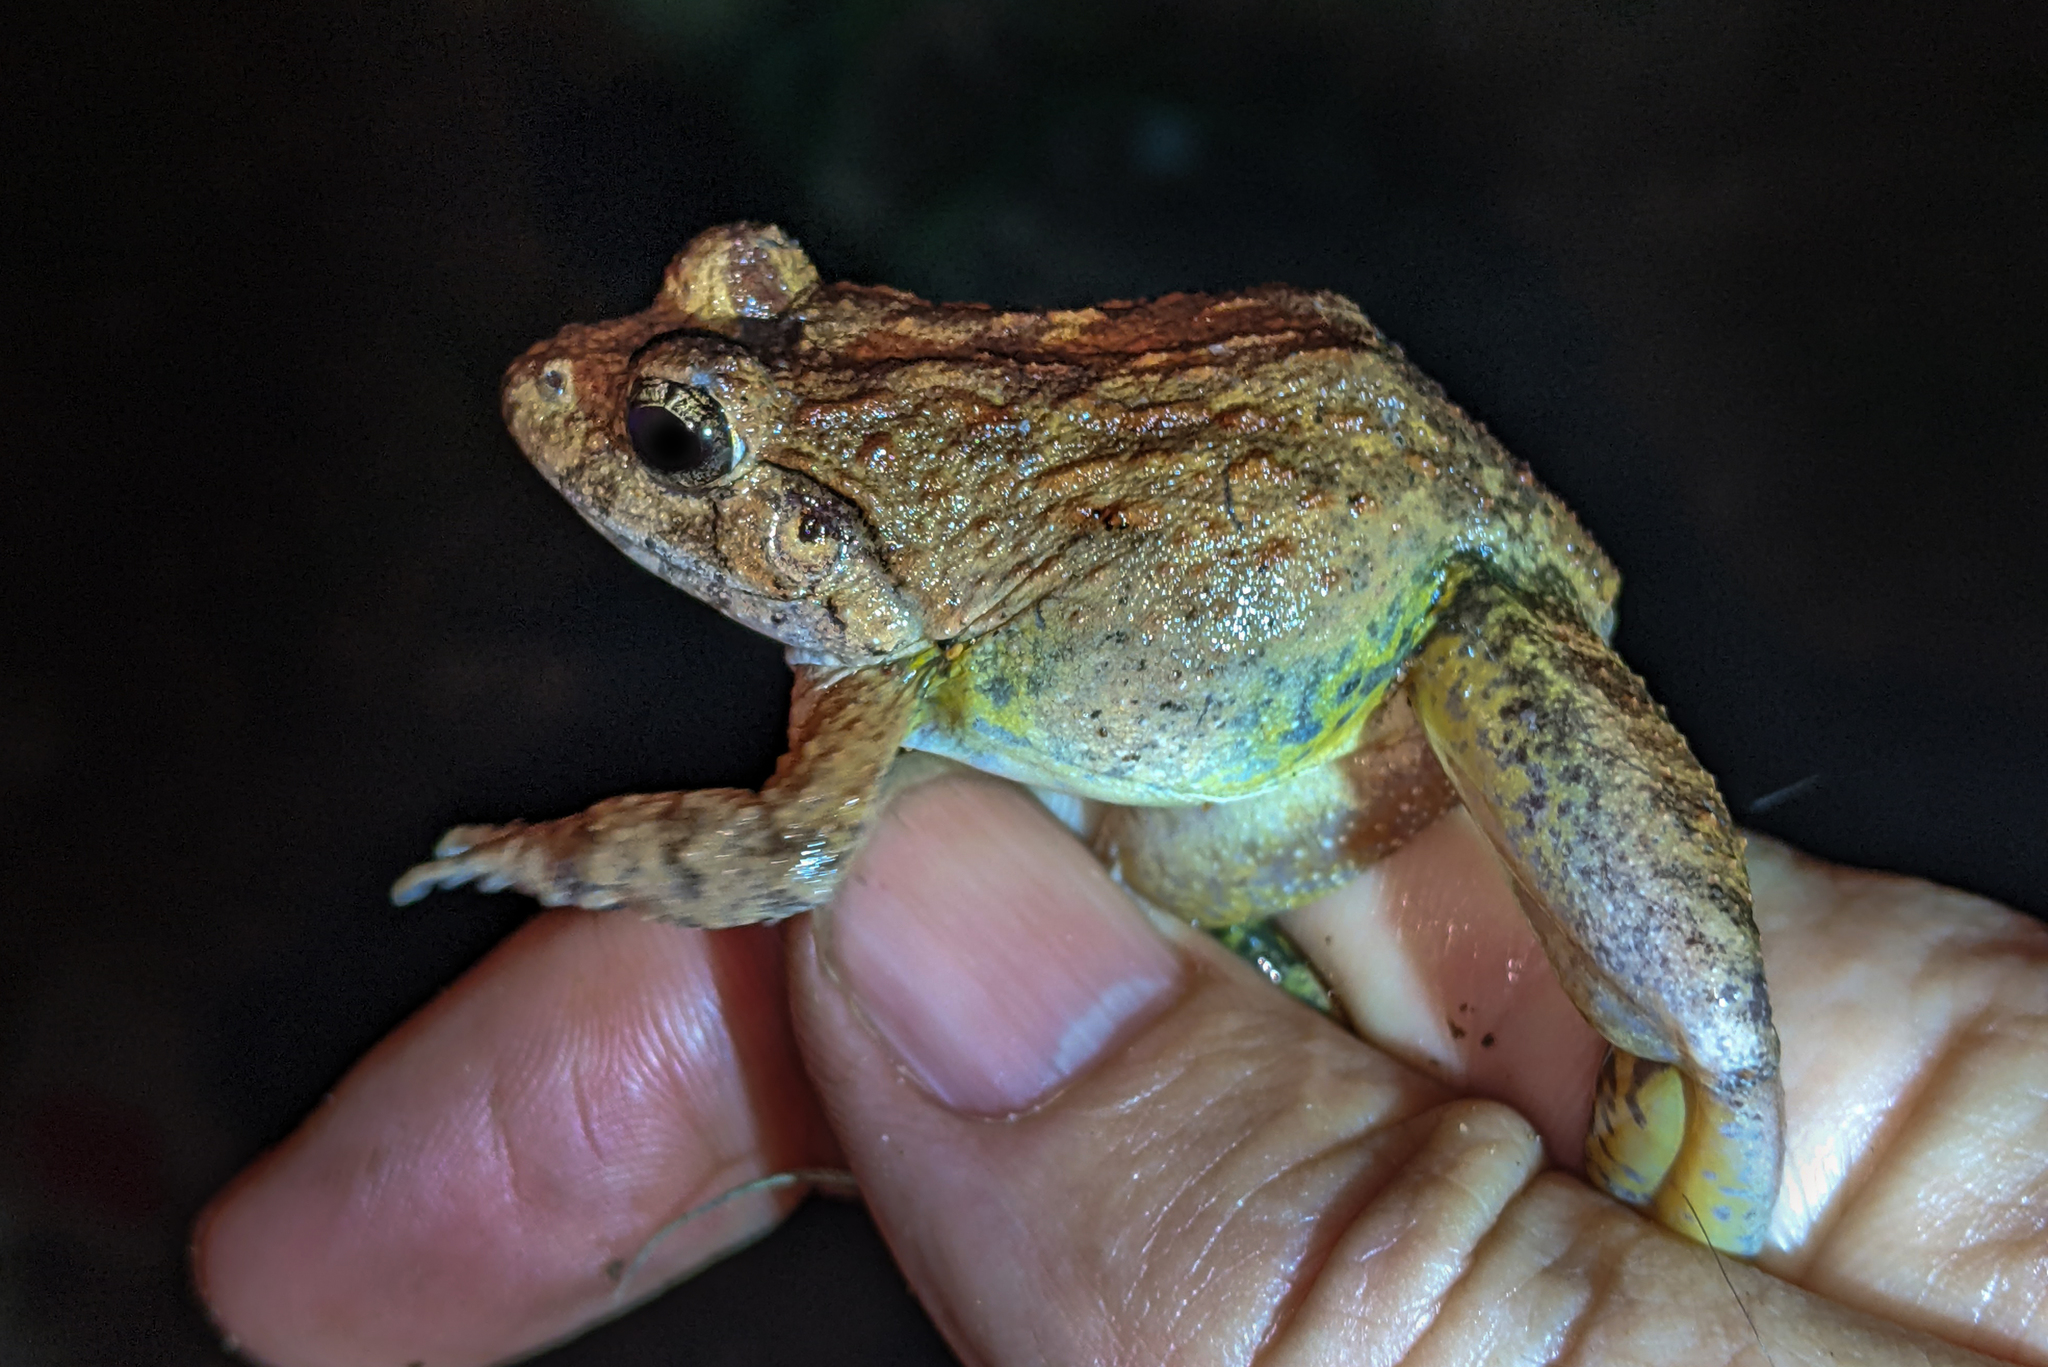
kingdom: Animalia
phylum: Chordata
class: Amphibia
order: Anura
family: Dicroglossidae
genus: Fejervarya
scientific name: Fejervarya moodiei
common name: Crab-eating frog
